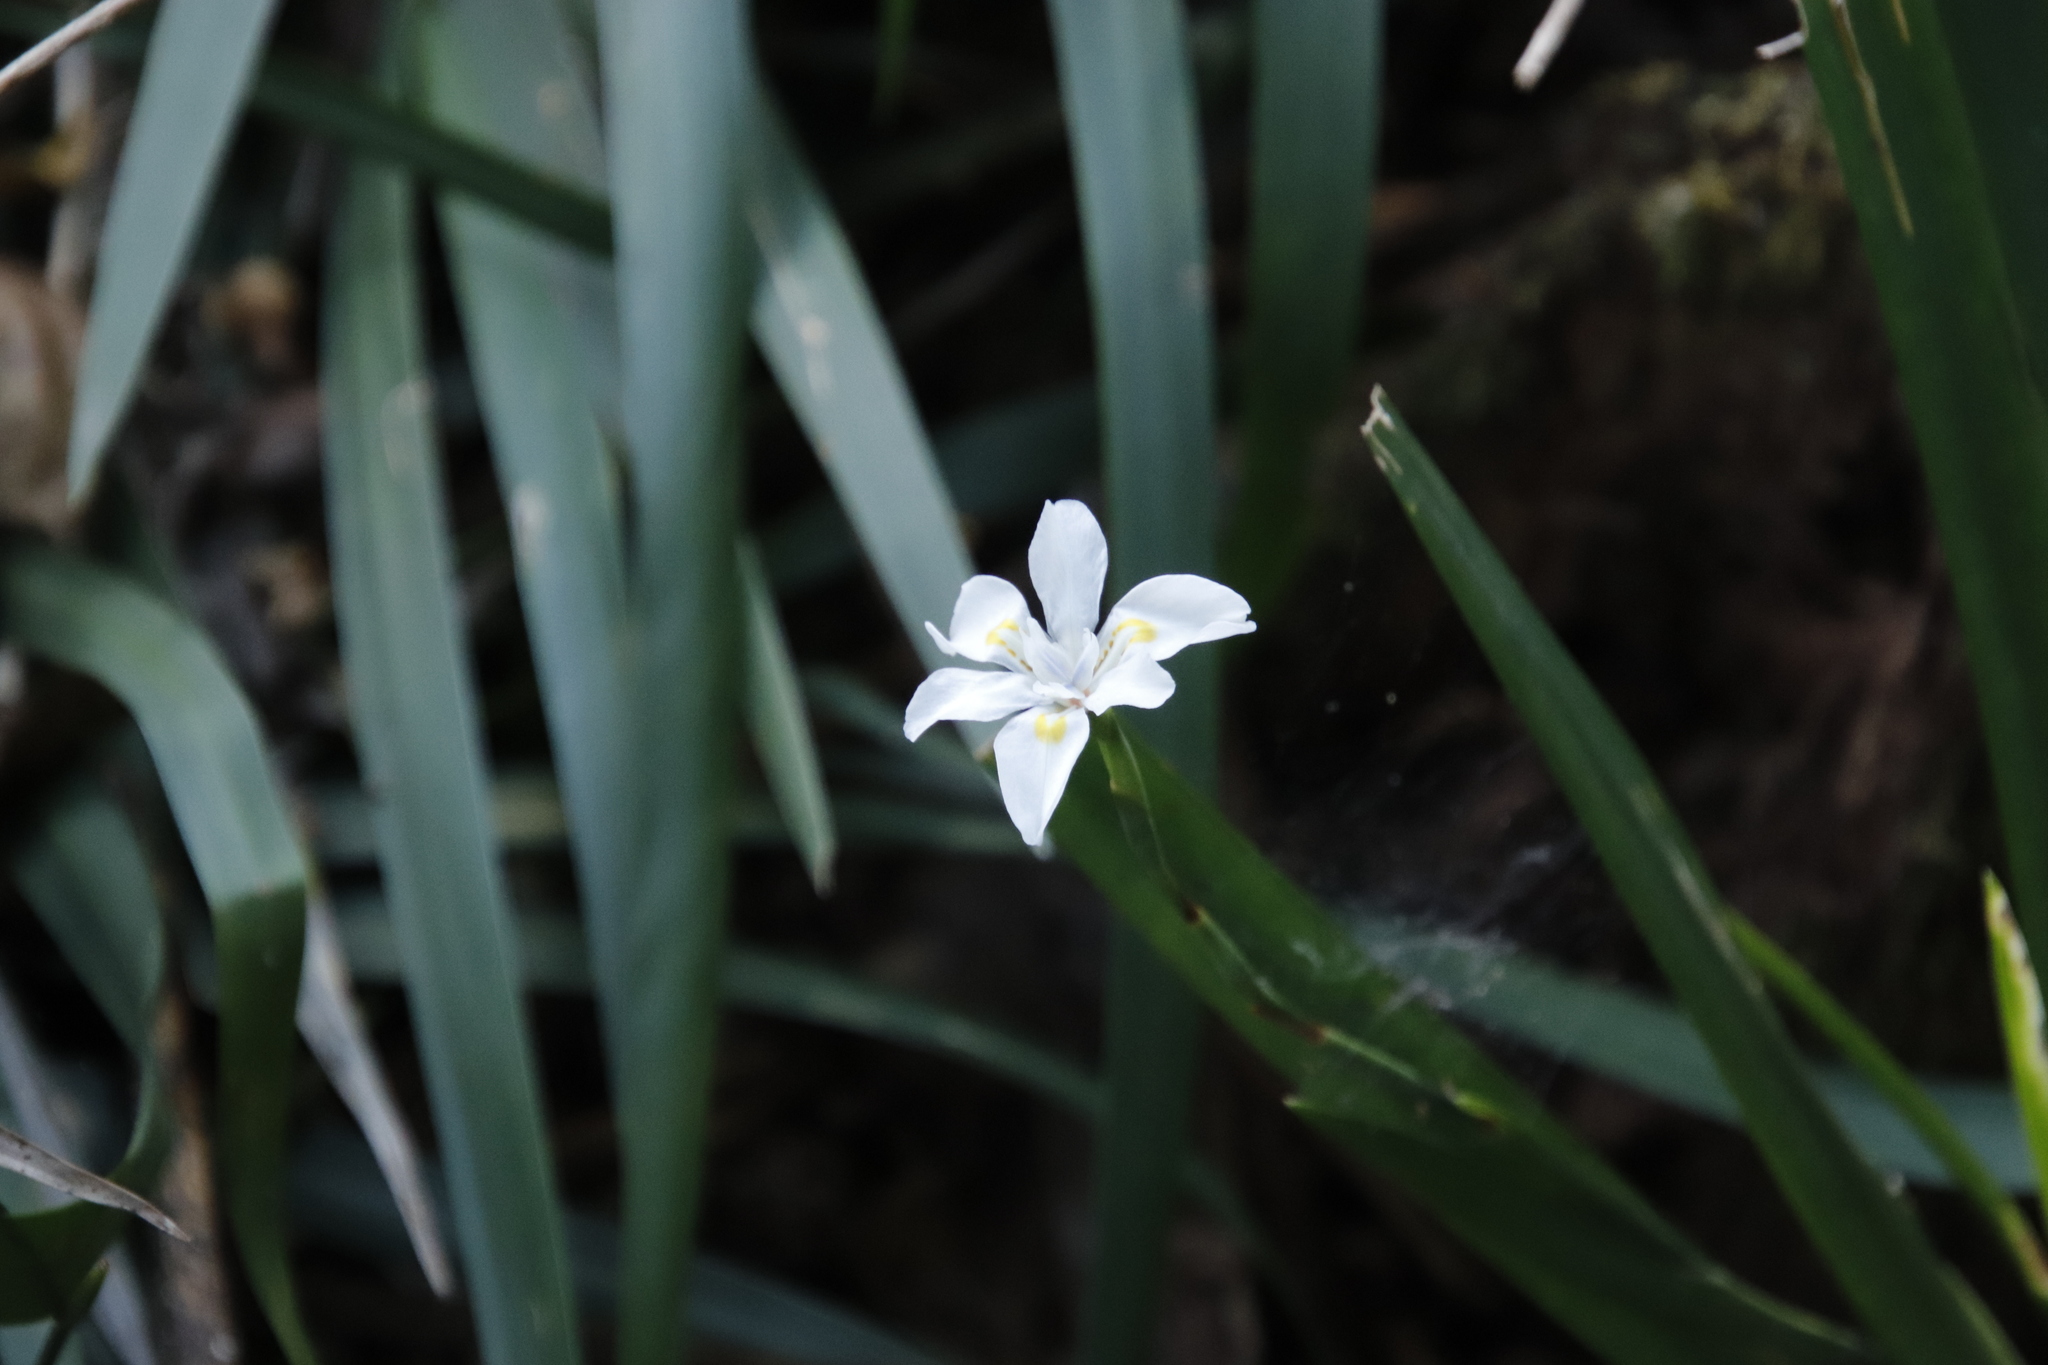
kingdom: Plantae
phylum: Tracheophyta
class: Liliopsida
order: Asparagales
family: Iridaceae
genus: Dietes
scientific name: Dietes iridioides
